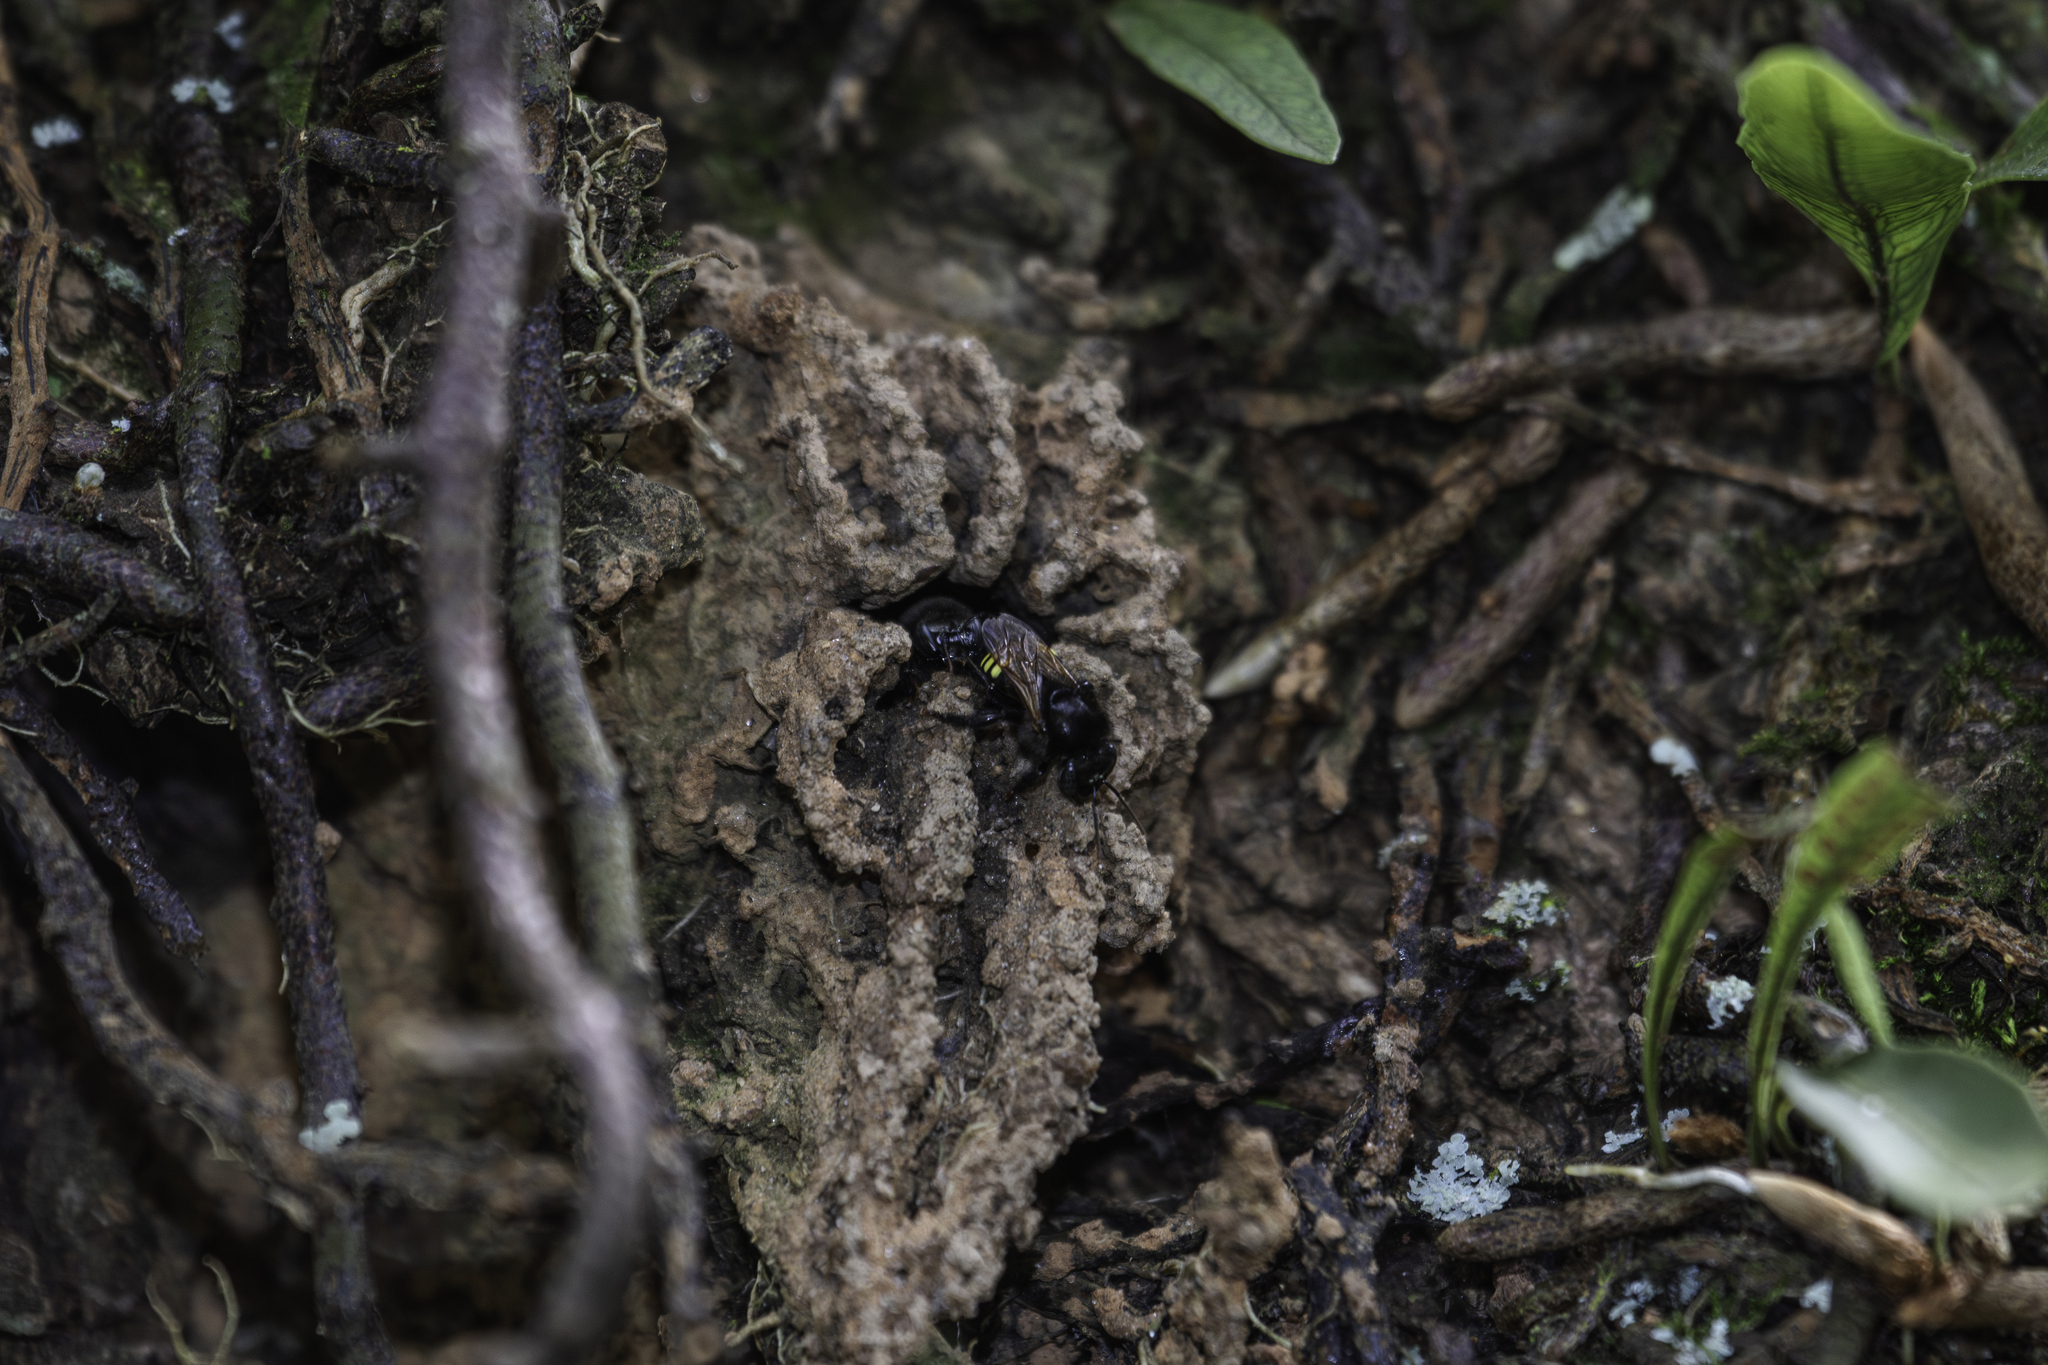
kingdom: Animalia
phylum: Arthropoda
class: Insecta
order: Hymenoptera
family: Apidae
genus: Melipona
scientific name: Melipona quadrifasciata
